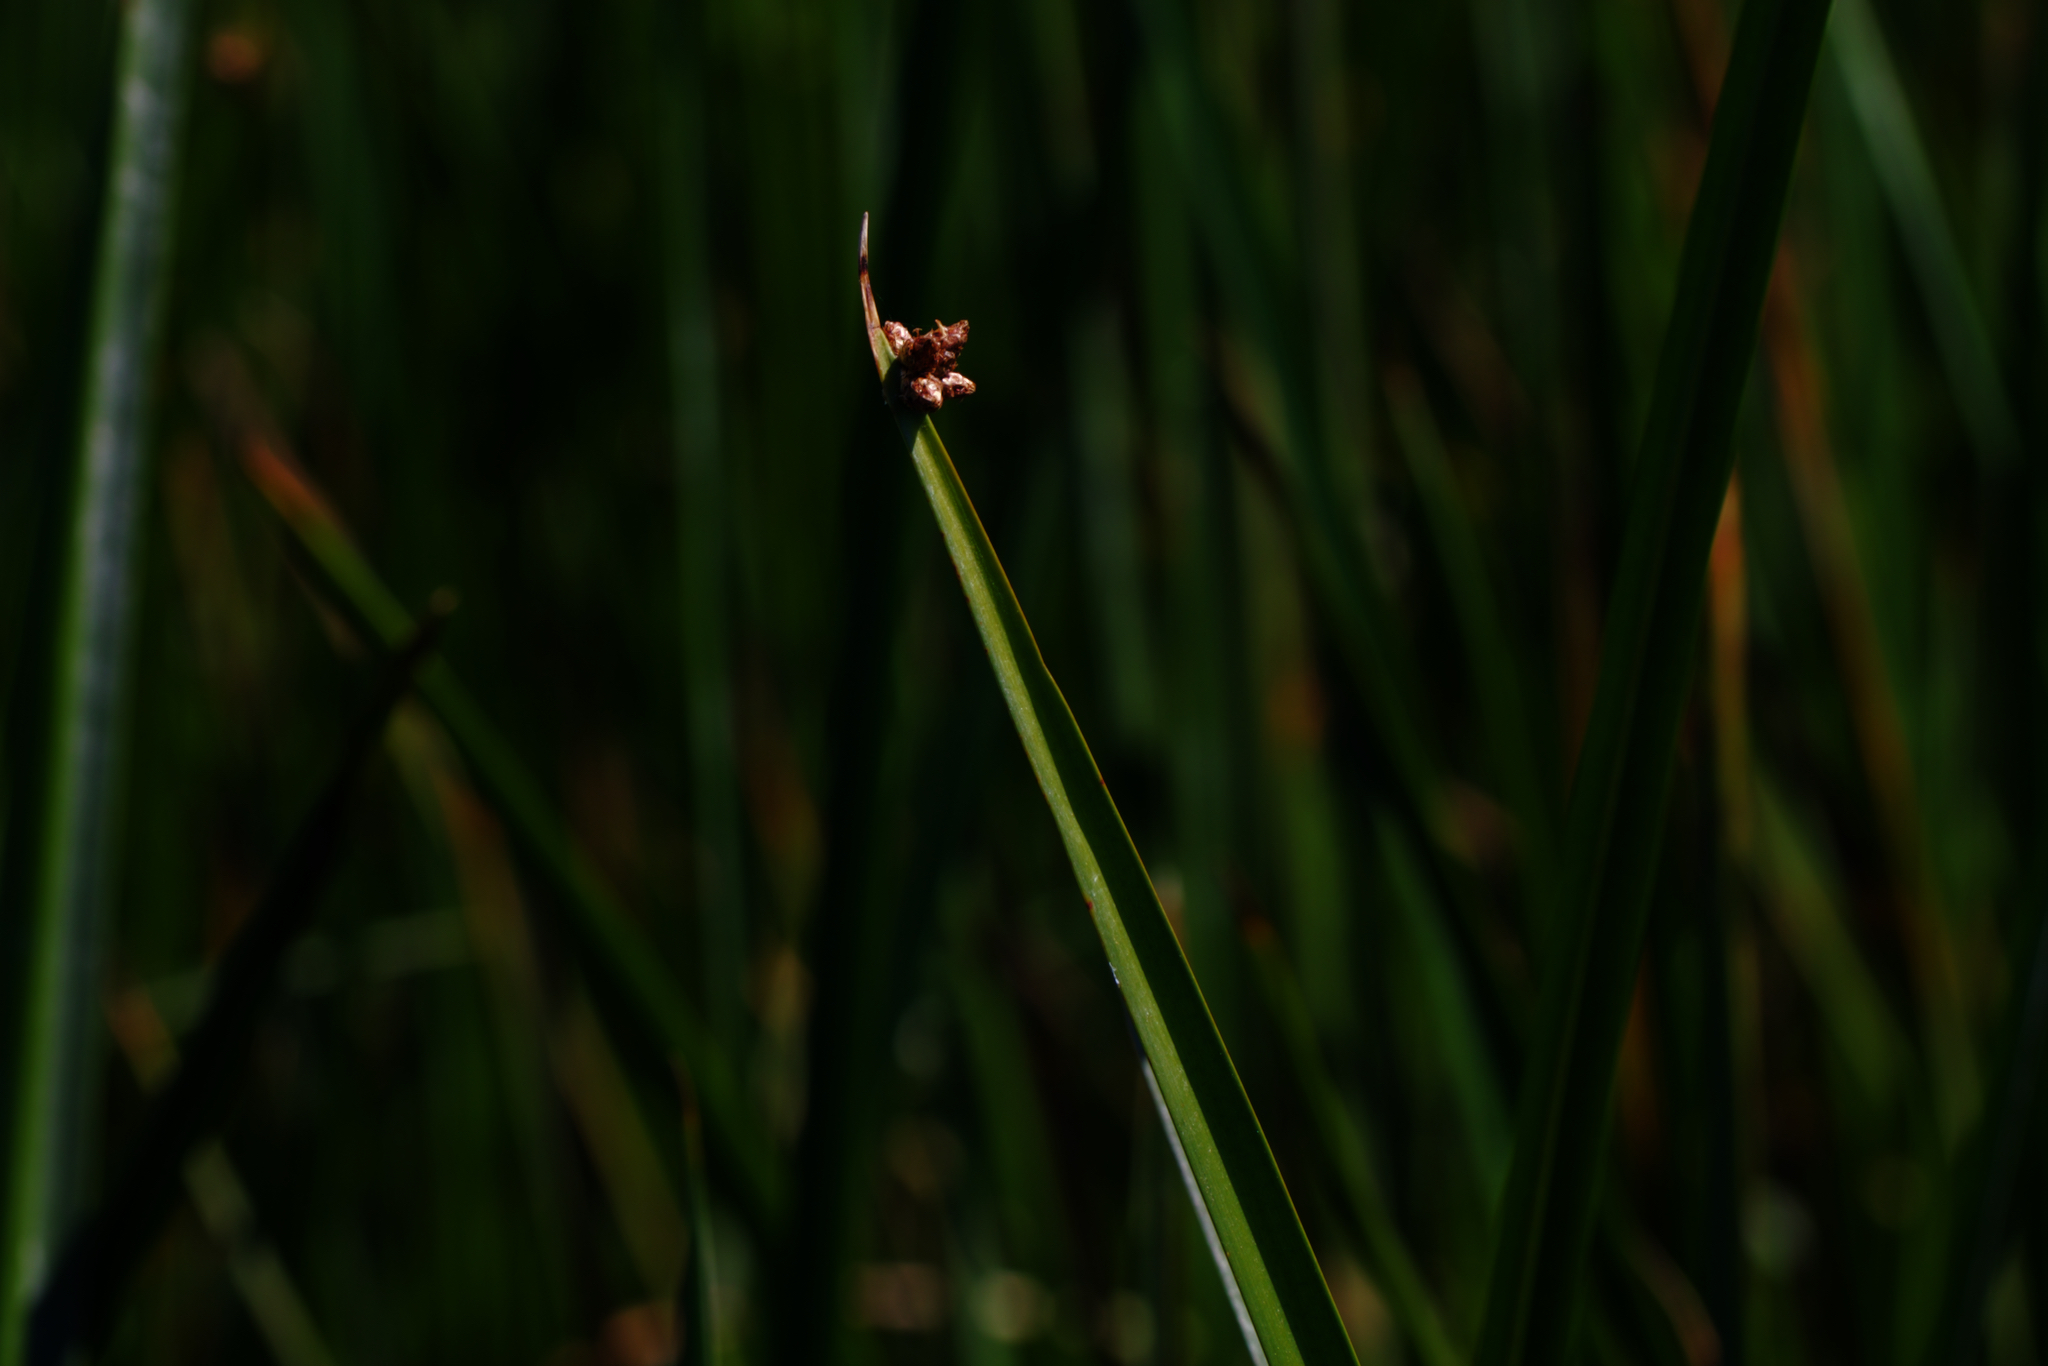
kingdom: Plantae
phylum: Tracheophyta
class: Liliopsida
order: Poales
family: Cyperaceae
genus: Schoenoplectus
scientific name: Schoenoplectus americanus
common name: American three-square bulrush
